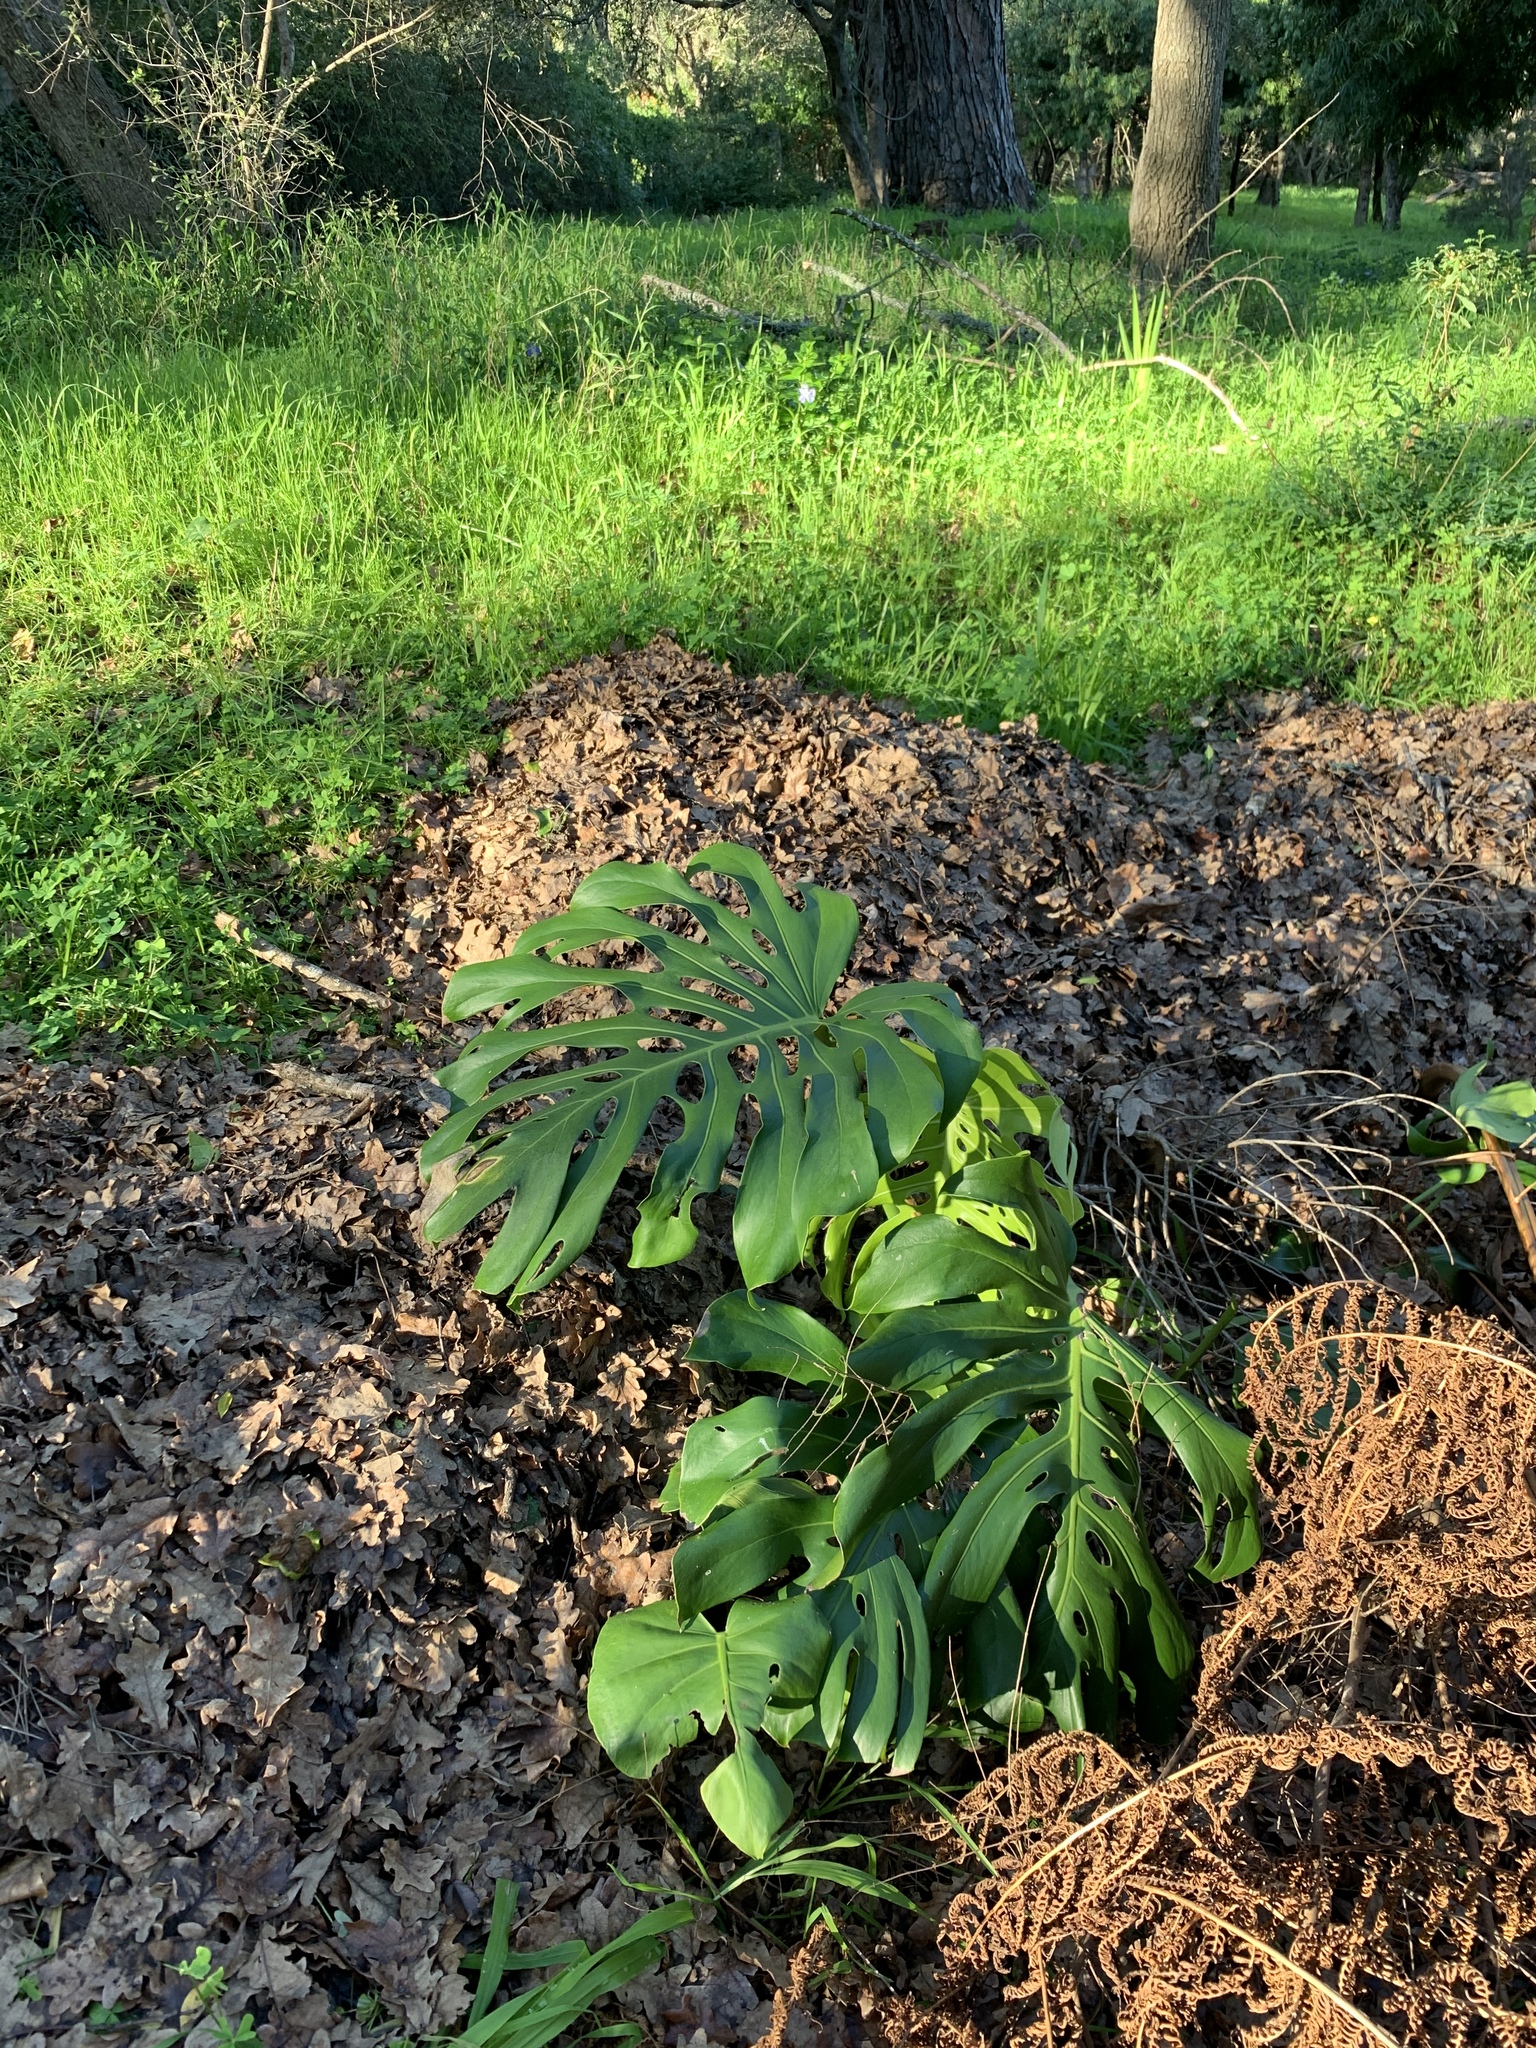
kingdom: Plantae
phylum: Tracheophyta
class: Liliopsida
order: Alismatales
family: Araceae
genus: Monstera
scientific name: Monstera deliciosa
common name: Cut-leaf-philodendron
